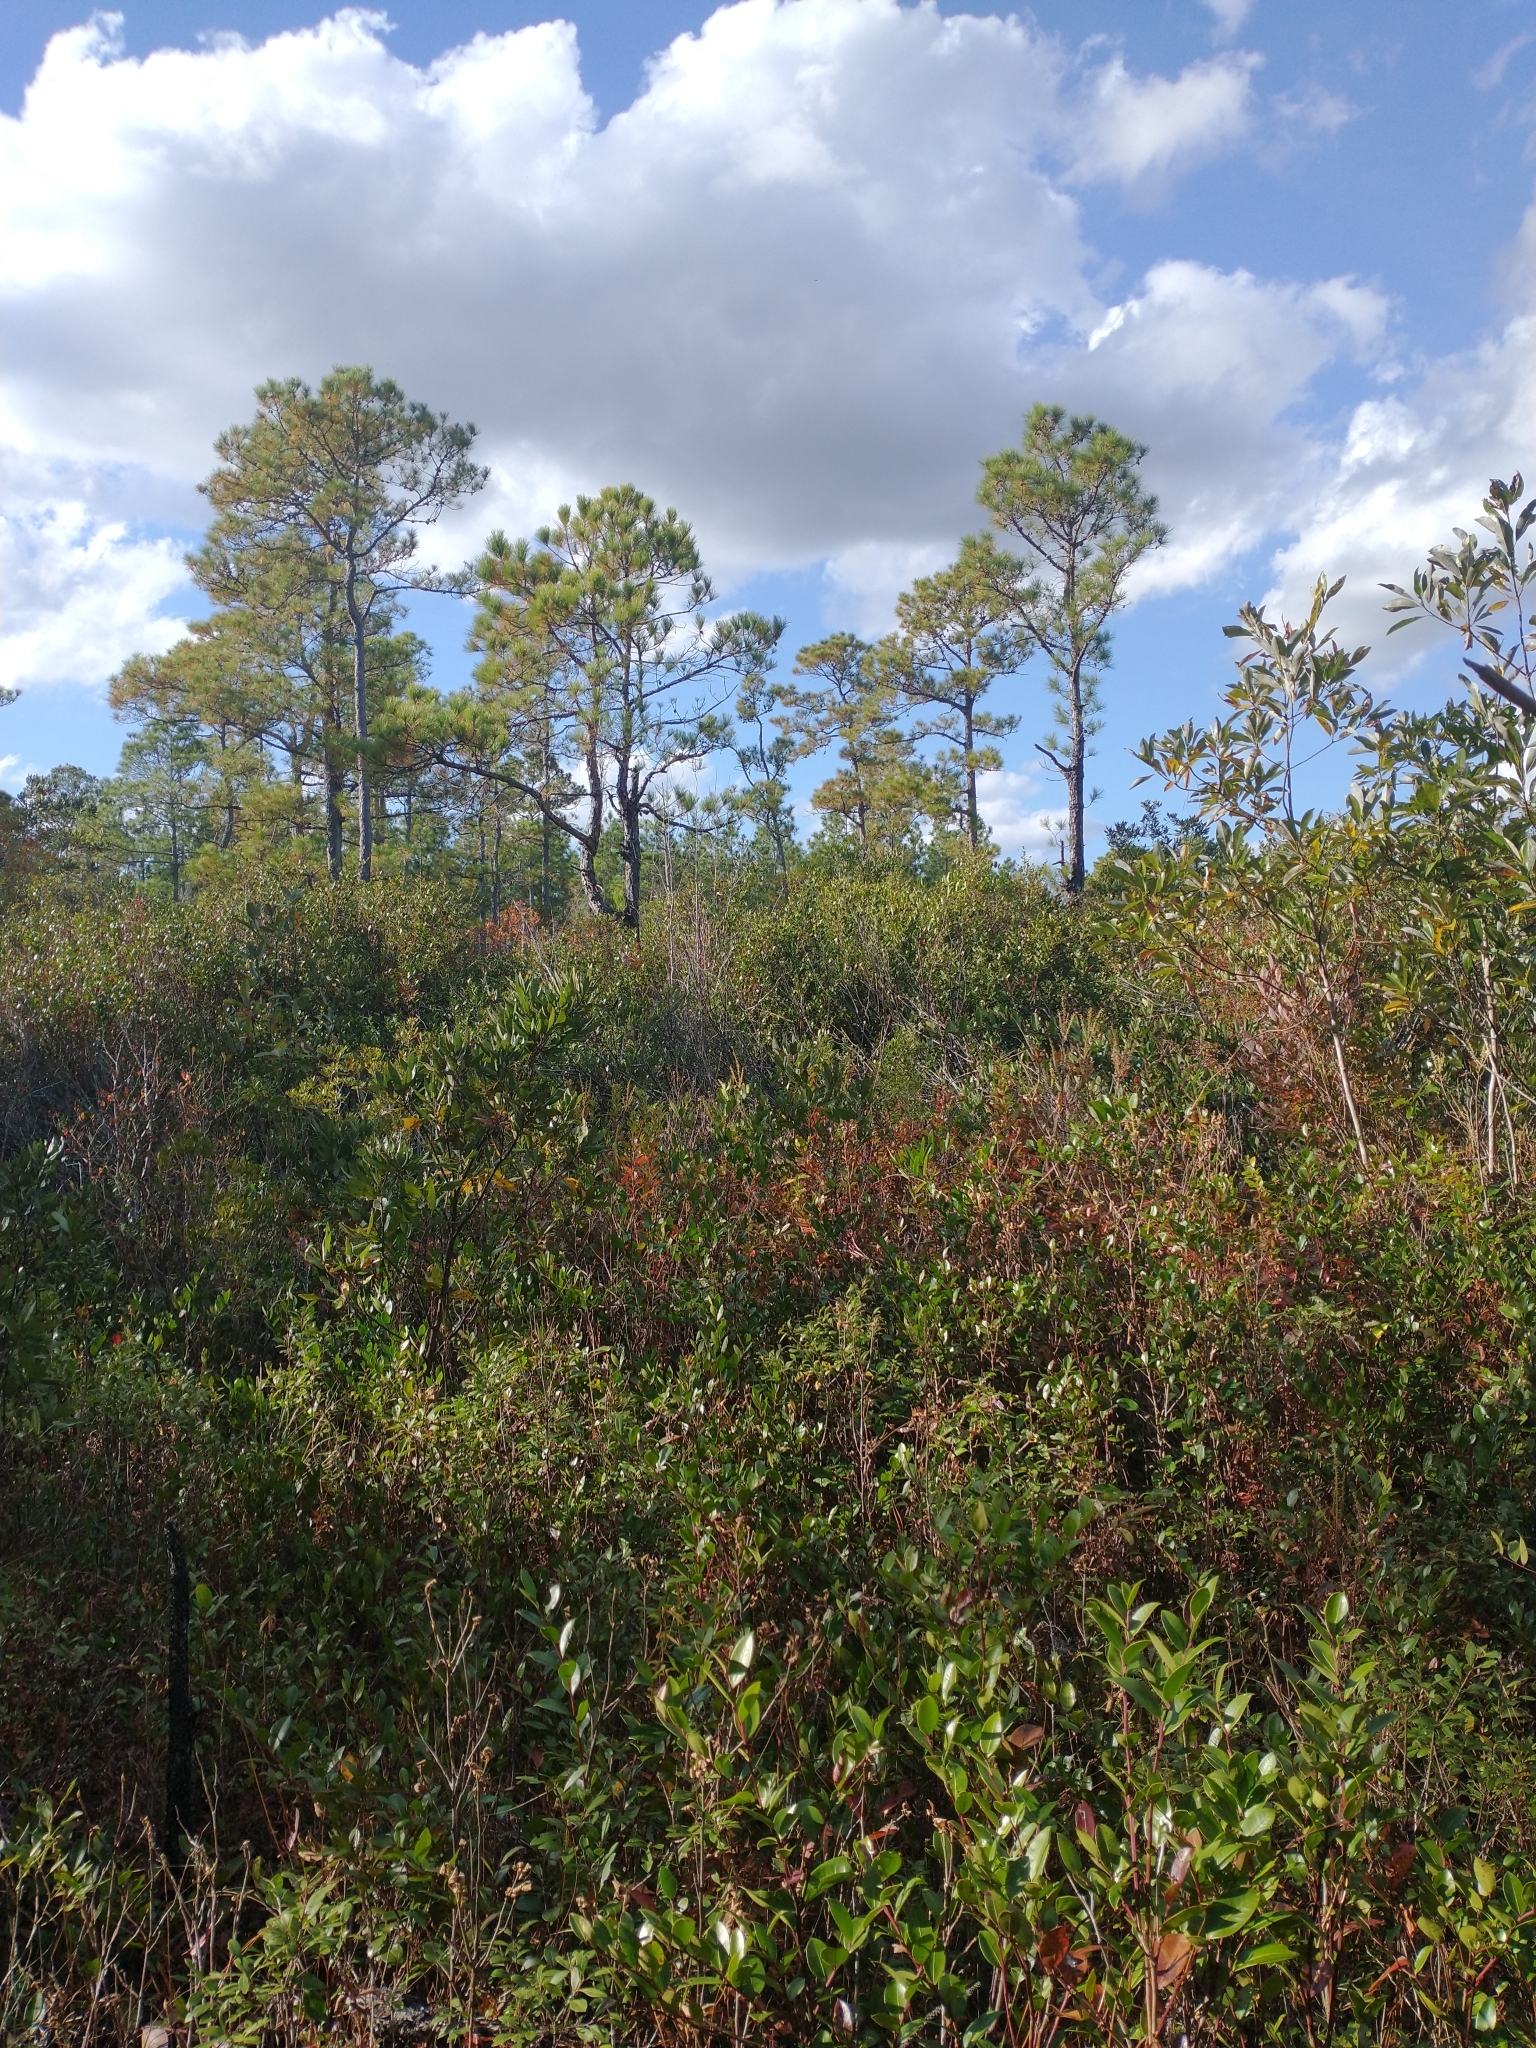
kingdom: Plantae
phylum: Tracheophyta
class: Pinopsida
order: Pinales
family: Pinaceae
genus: Pinus
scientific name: Pinus serotina
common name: Marsh pine
